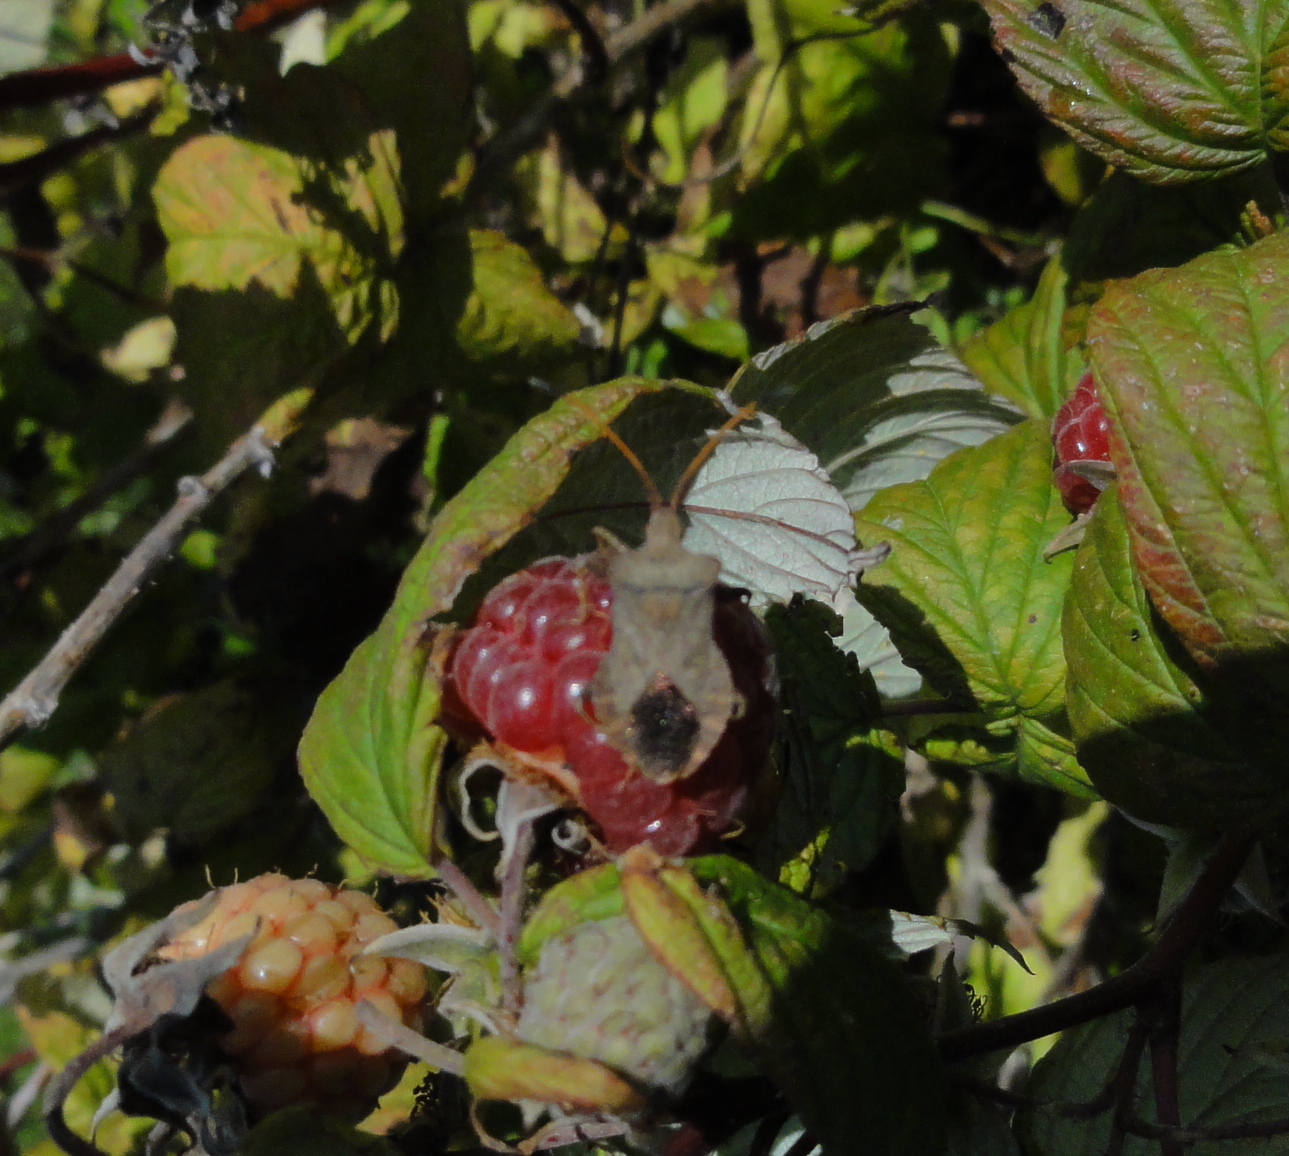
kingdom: Animalia
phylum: Arthropoda
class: Insecta
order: Hemiptera
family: Coreidae
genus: Coreus
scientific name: Coreus marginatus
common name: Dock bug
